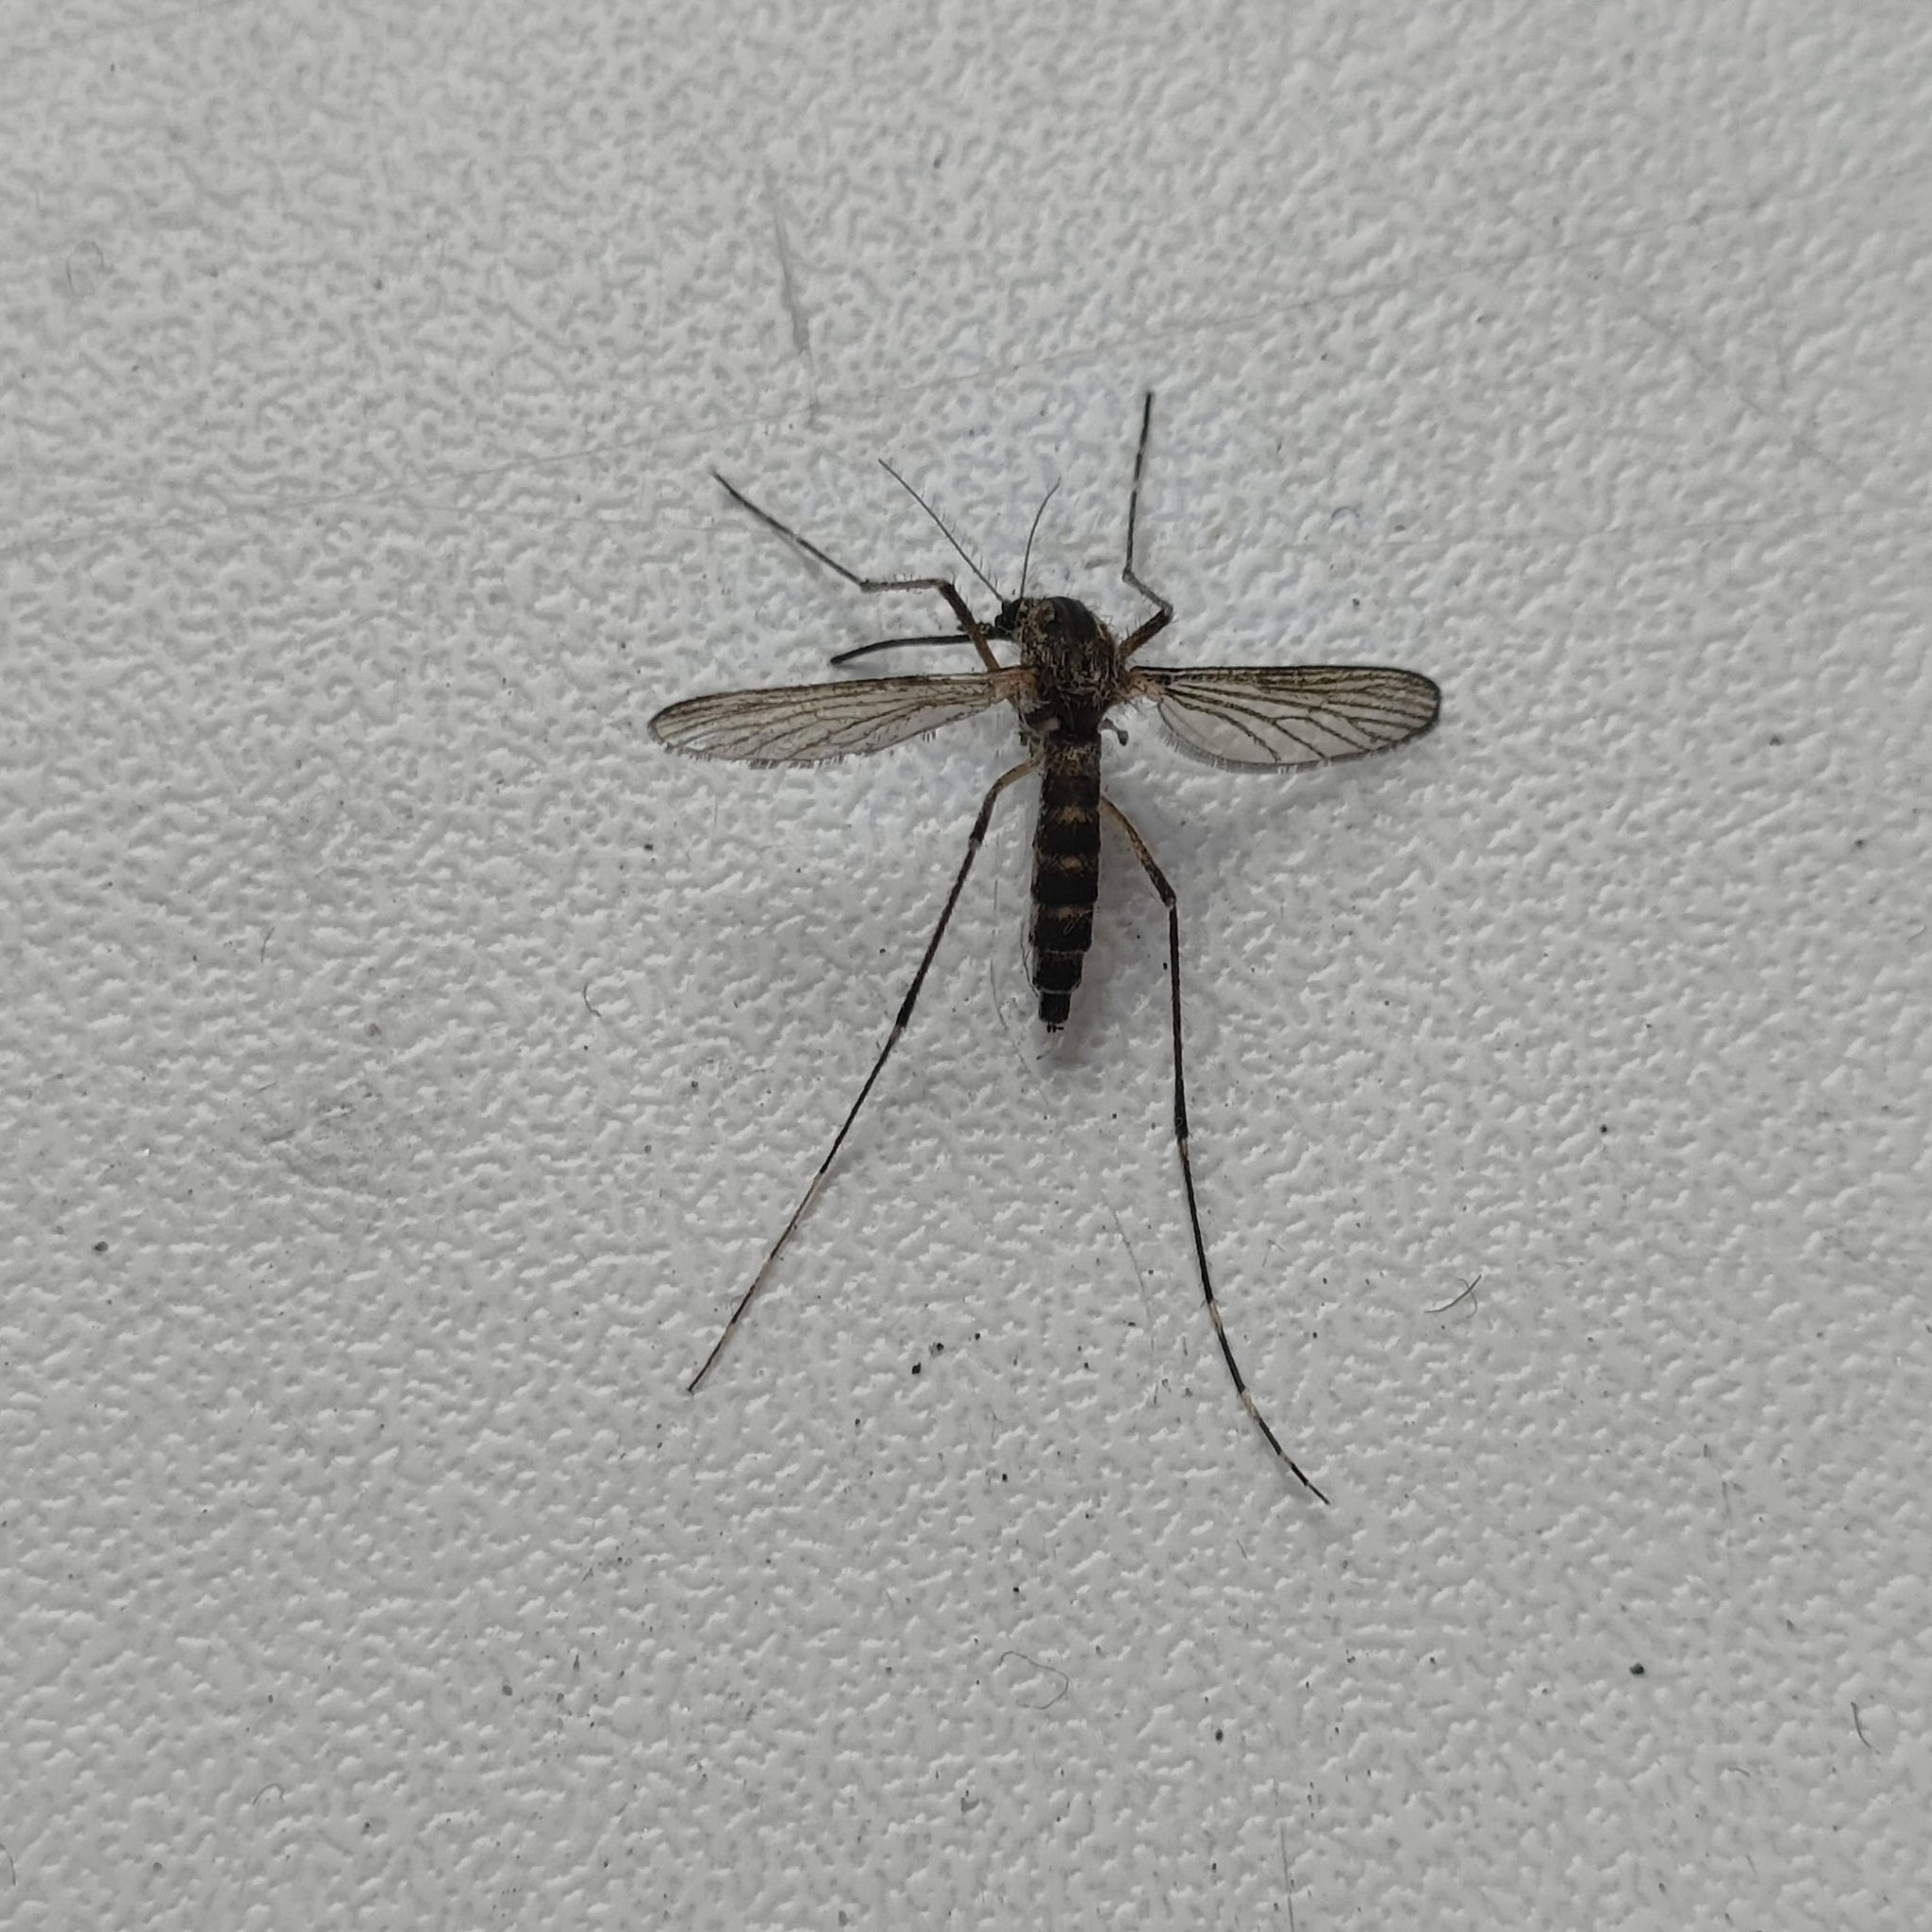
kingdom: Animalia
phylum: Arthropoda
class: Insecta
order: Diptera
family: Culicidae
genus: Culiseta
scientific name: Culiseta annulata
